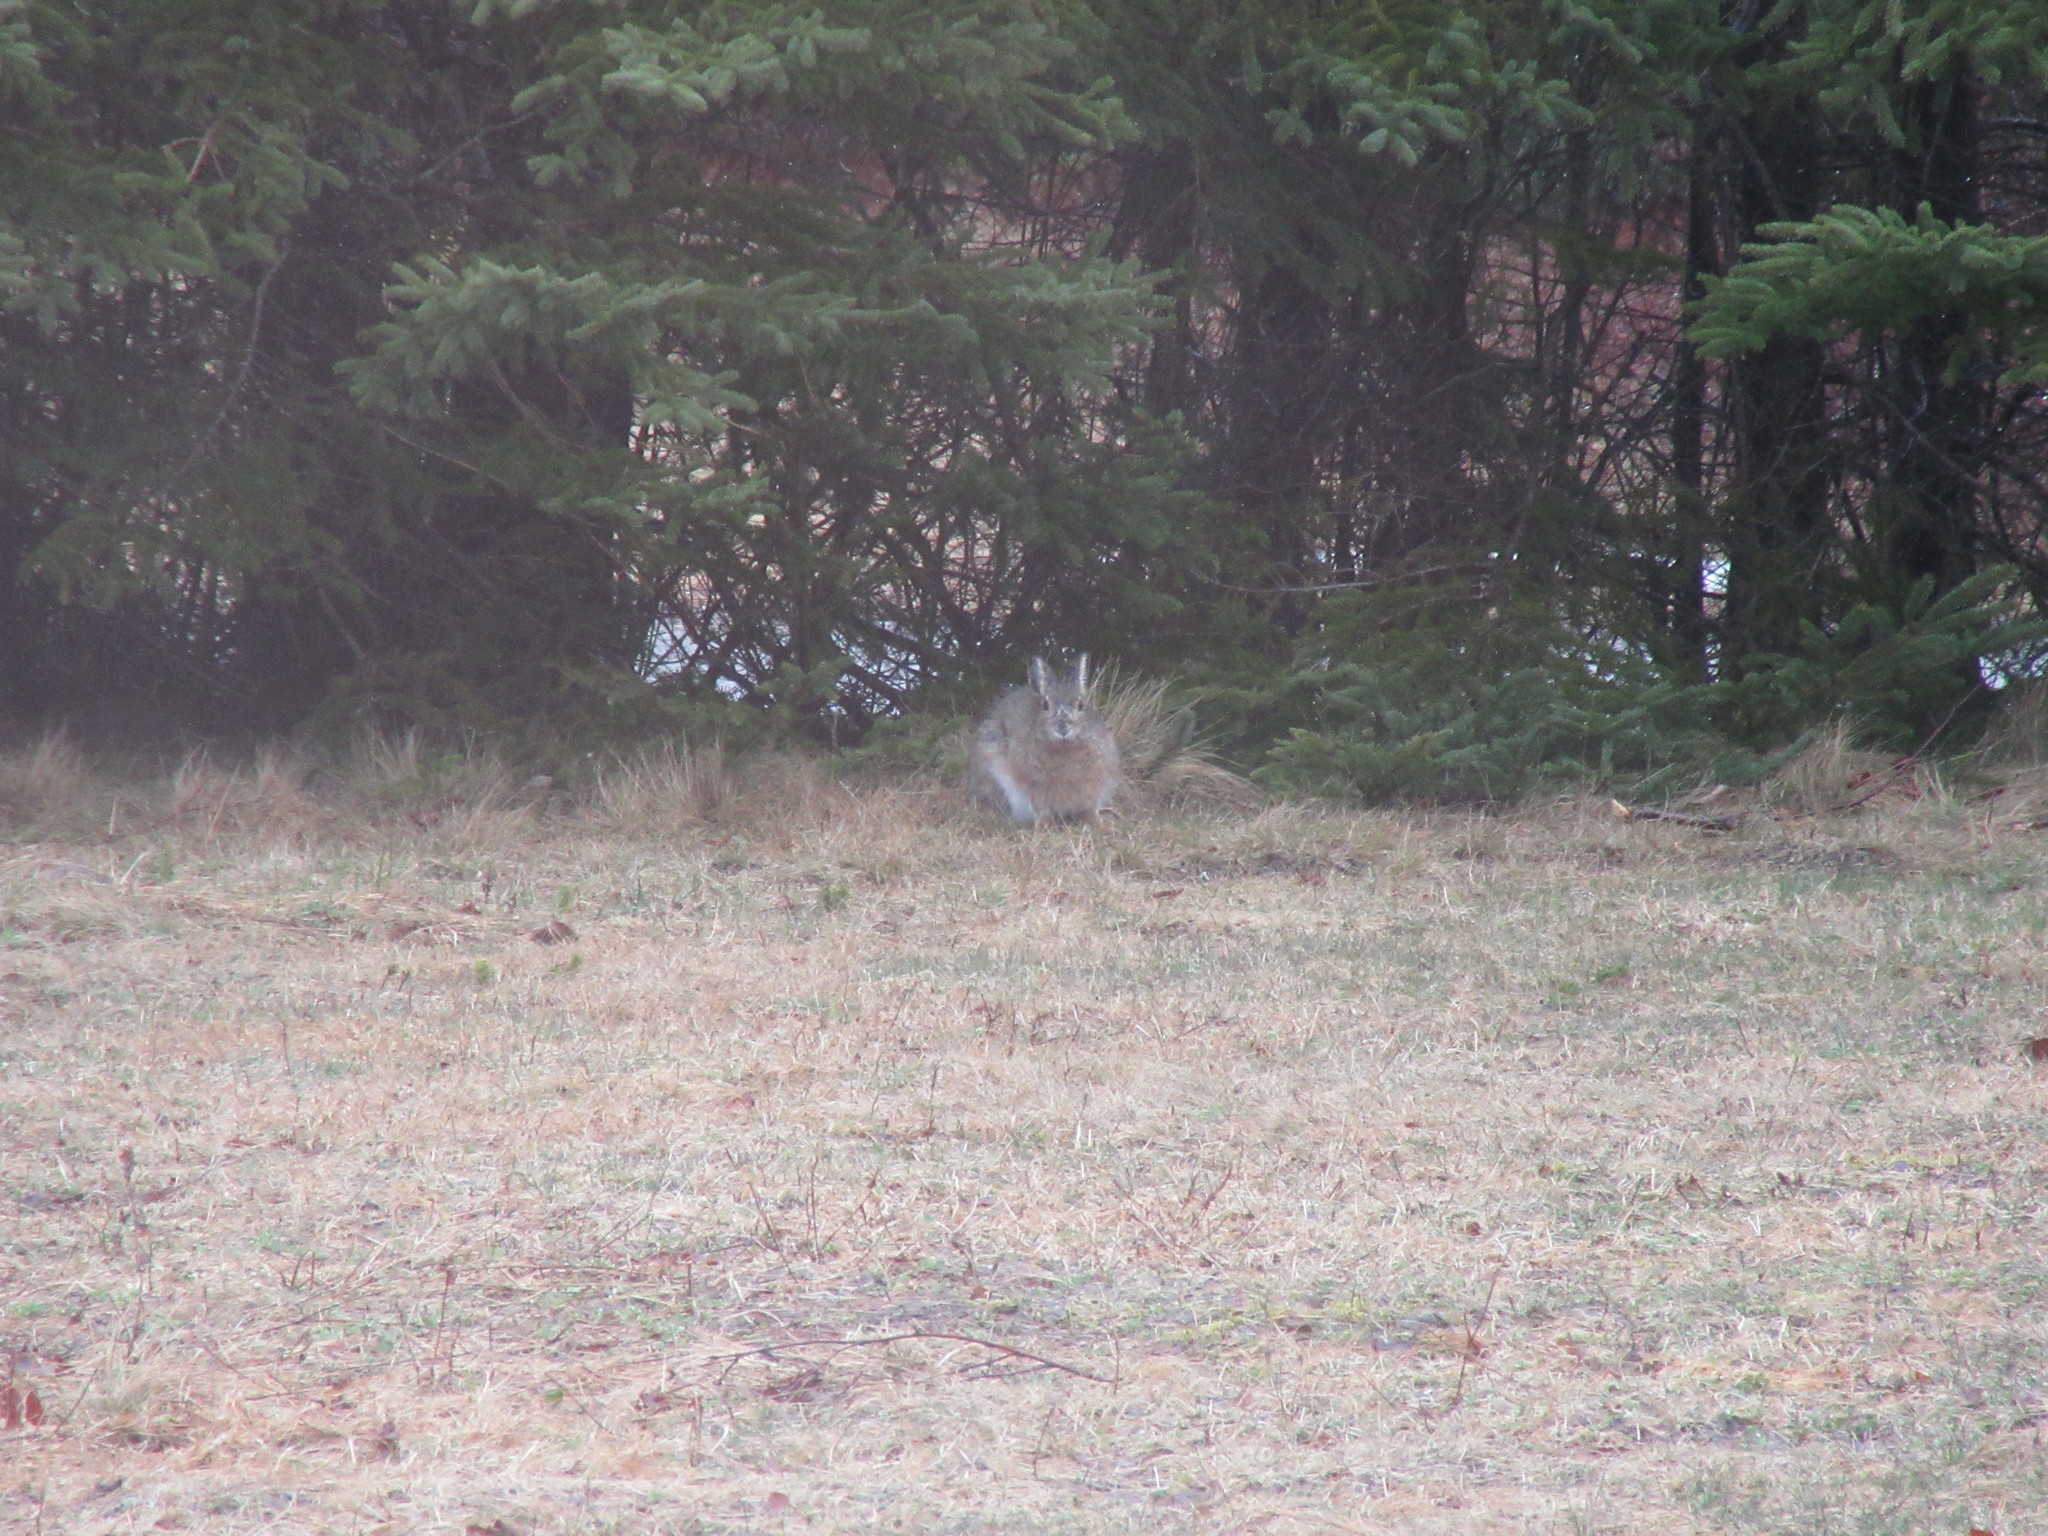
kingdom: Animalia
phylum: Chordata
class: Mammalia
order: Lagomorpha
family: Leporidae
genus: Lepus
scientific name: Lepus americanus
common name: Snowshoe hare
